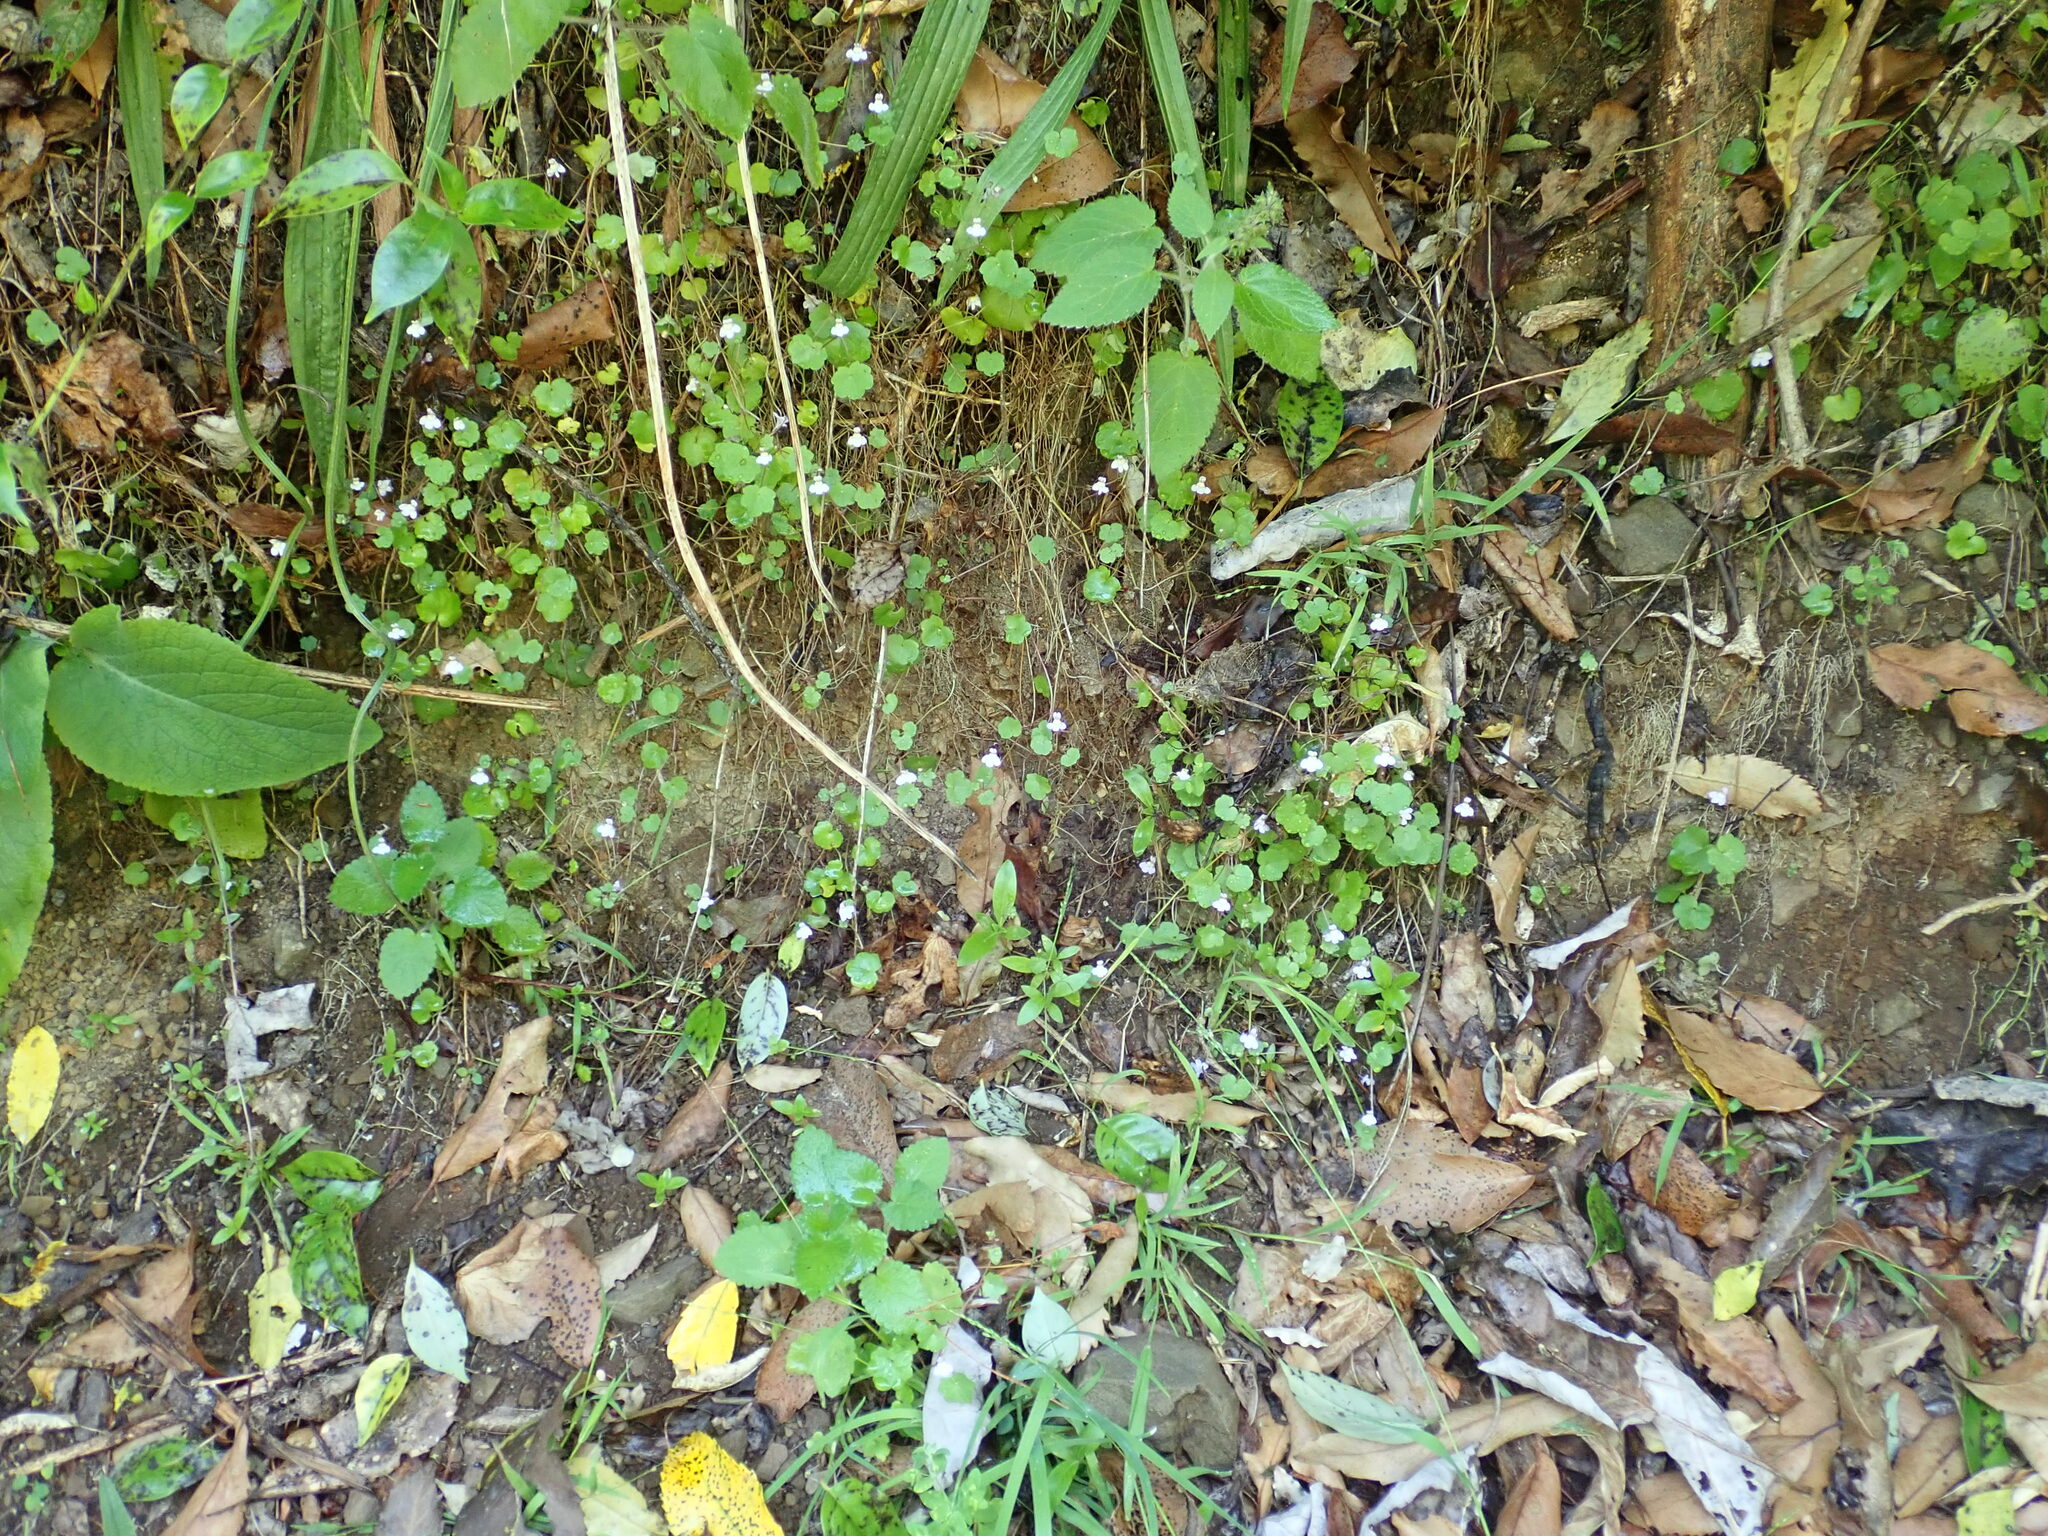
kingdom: Plantae
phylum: Tracheophyta
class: Magnoliopsida
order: Lamiales
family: Plantaginaceae
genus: Cymbalaria
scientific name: Cymbalaria muralis
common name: Ivy-leaved toadflax
